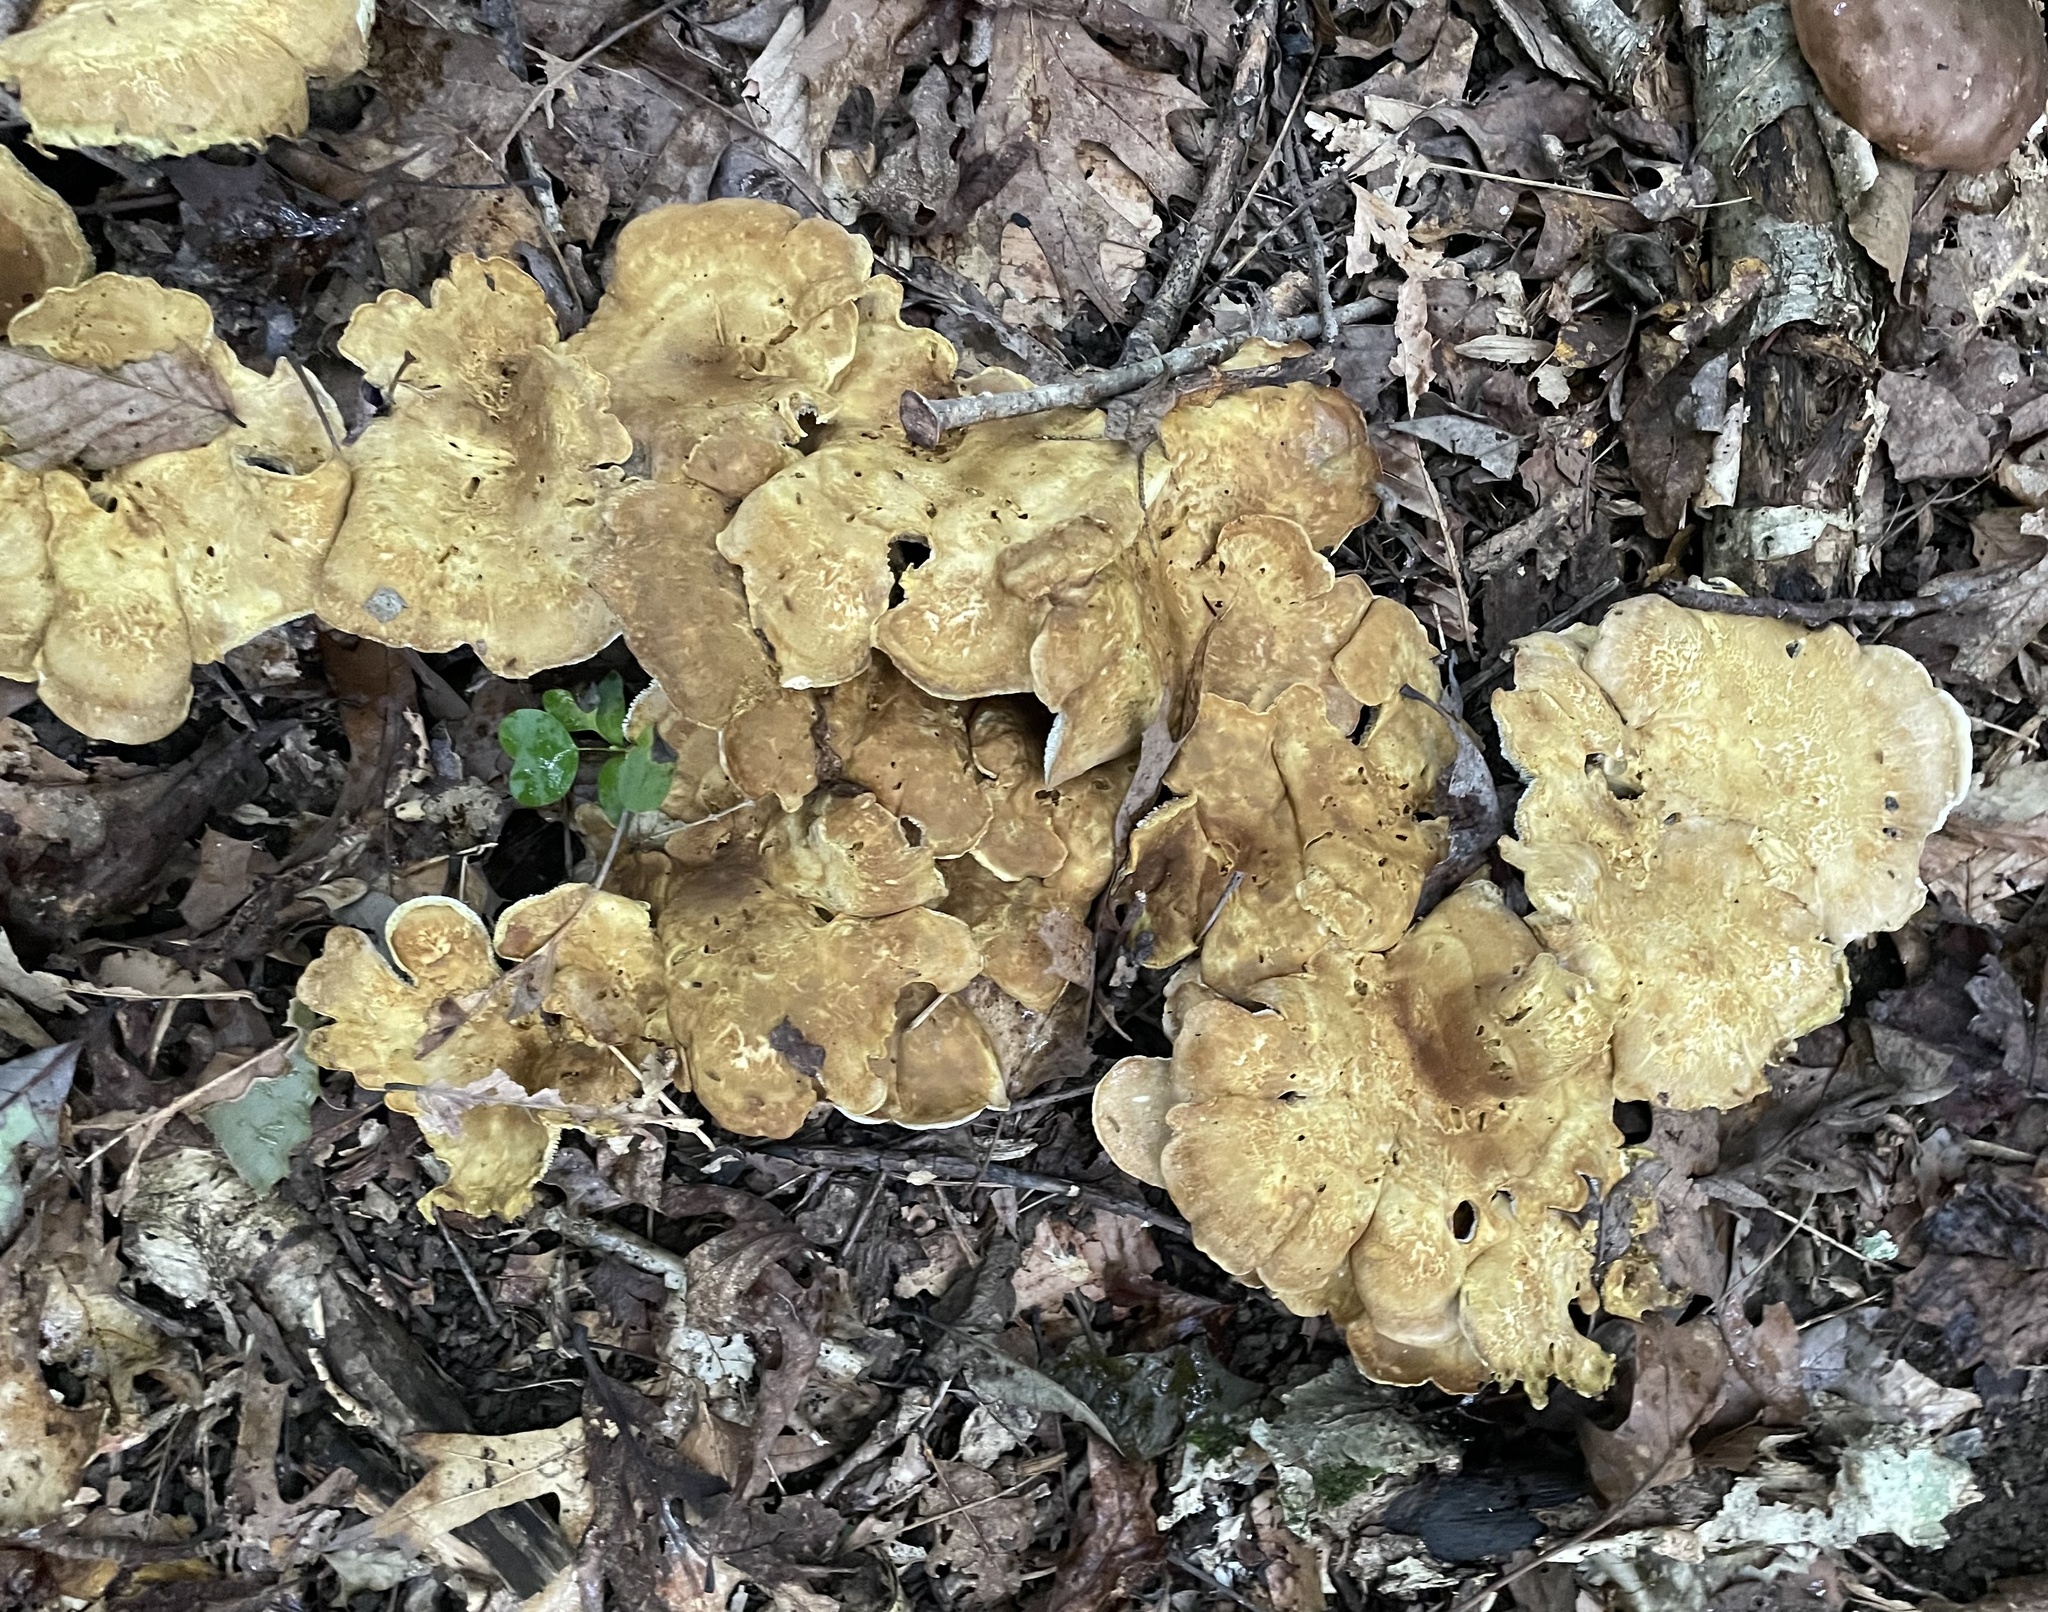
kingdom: Fungi
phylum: Basidiomycota
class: Agaricomycetes
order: Russulales
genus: Laeticutis
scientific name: Laeticutis cristata
